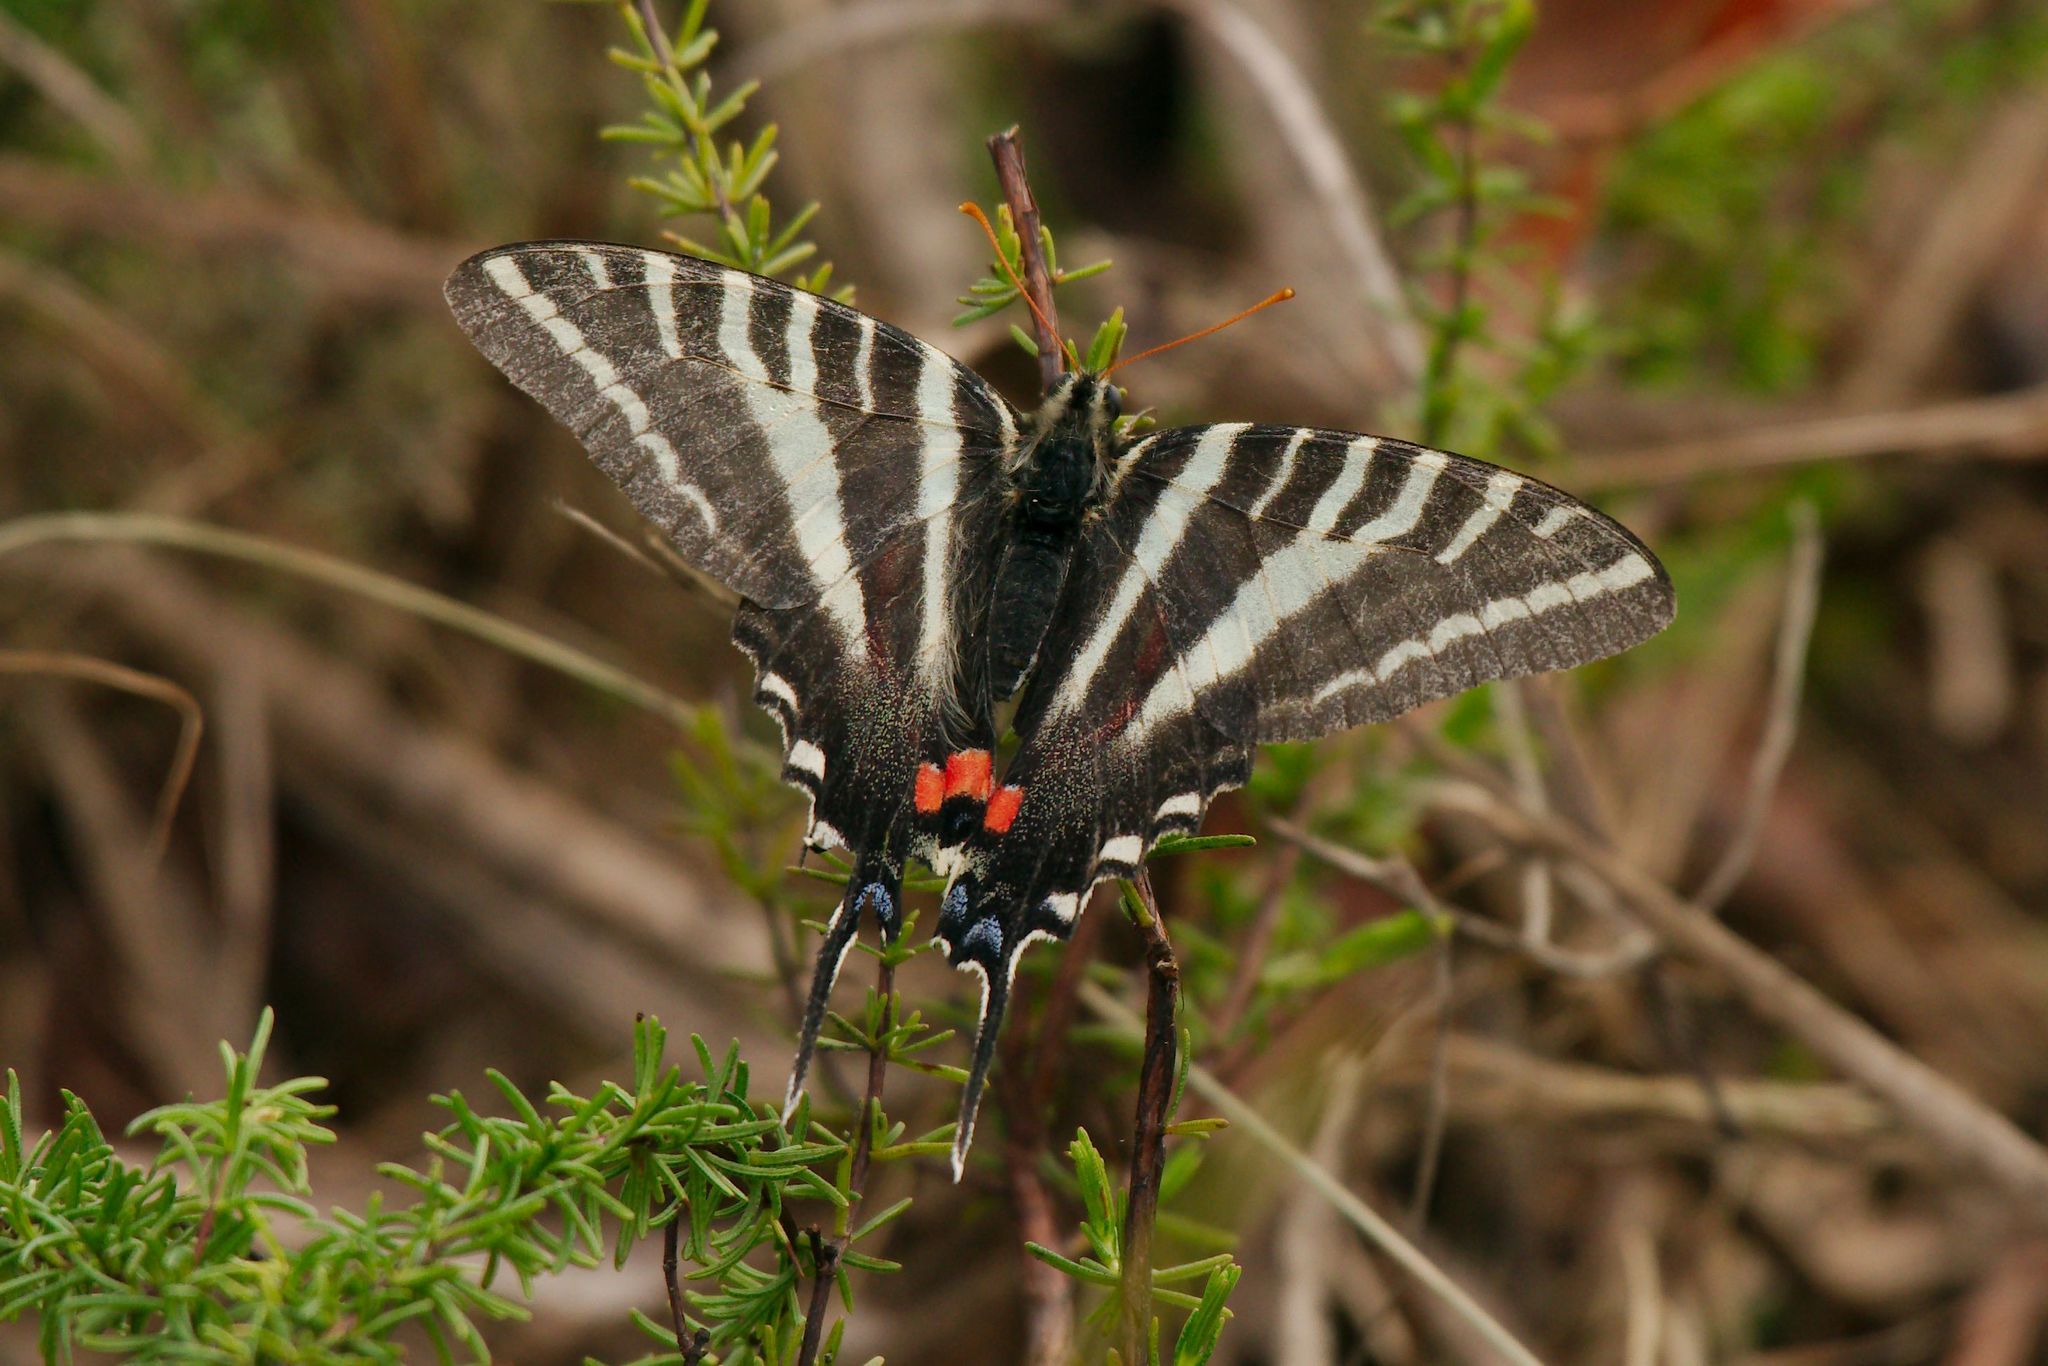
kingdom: Animalia
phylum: Arthropoda
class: Insecta
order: Lepidoptera
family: Papilionidae
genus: Protographium
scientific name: Protographium marcellus
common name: Zebra swallowtail
